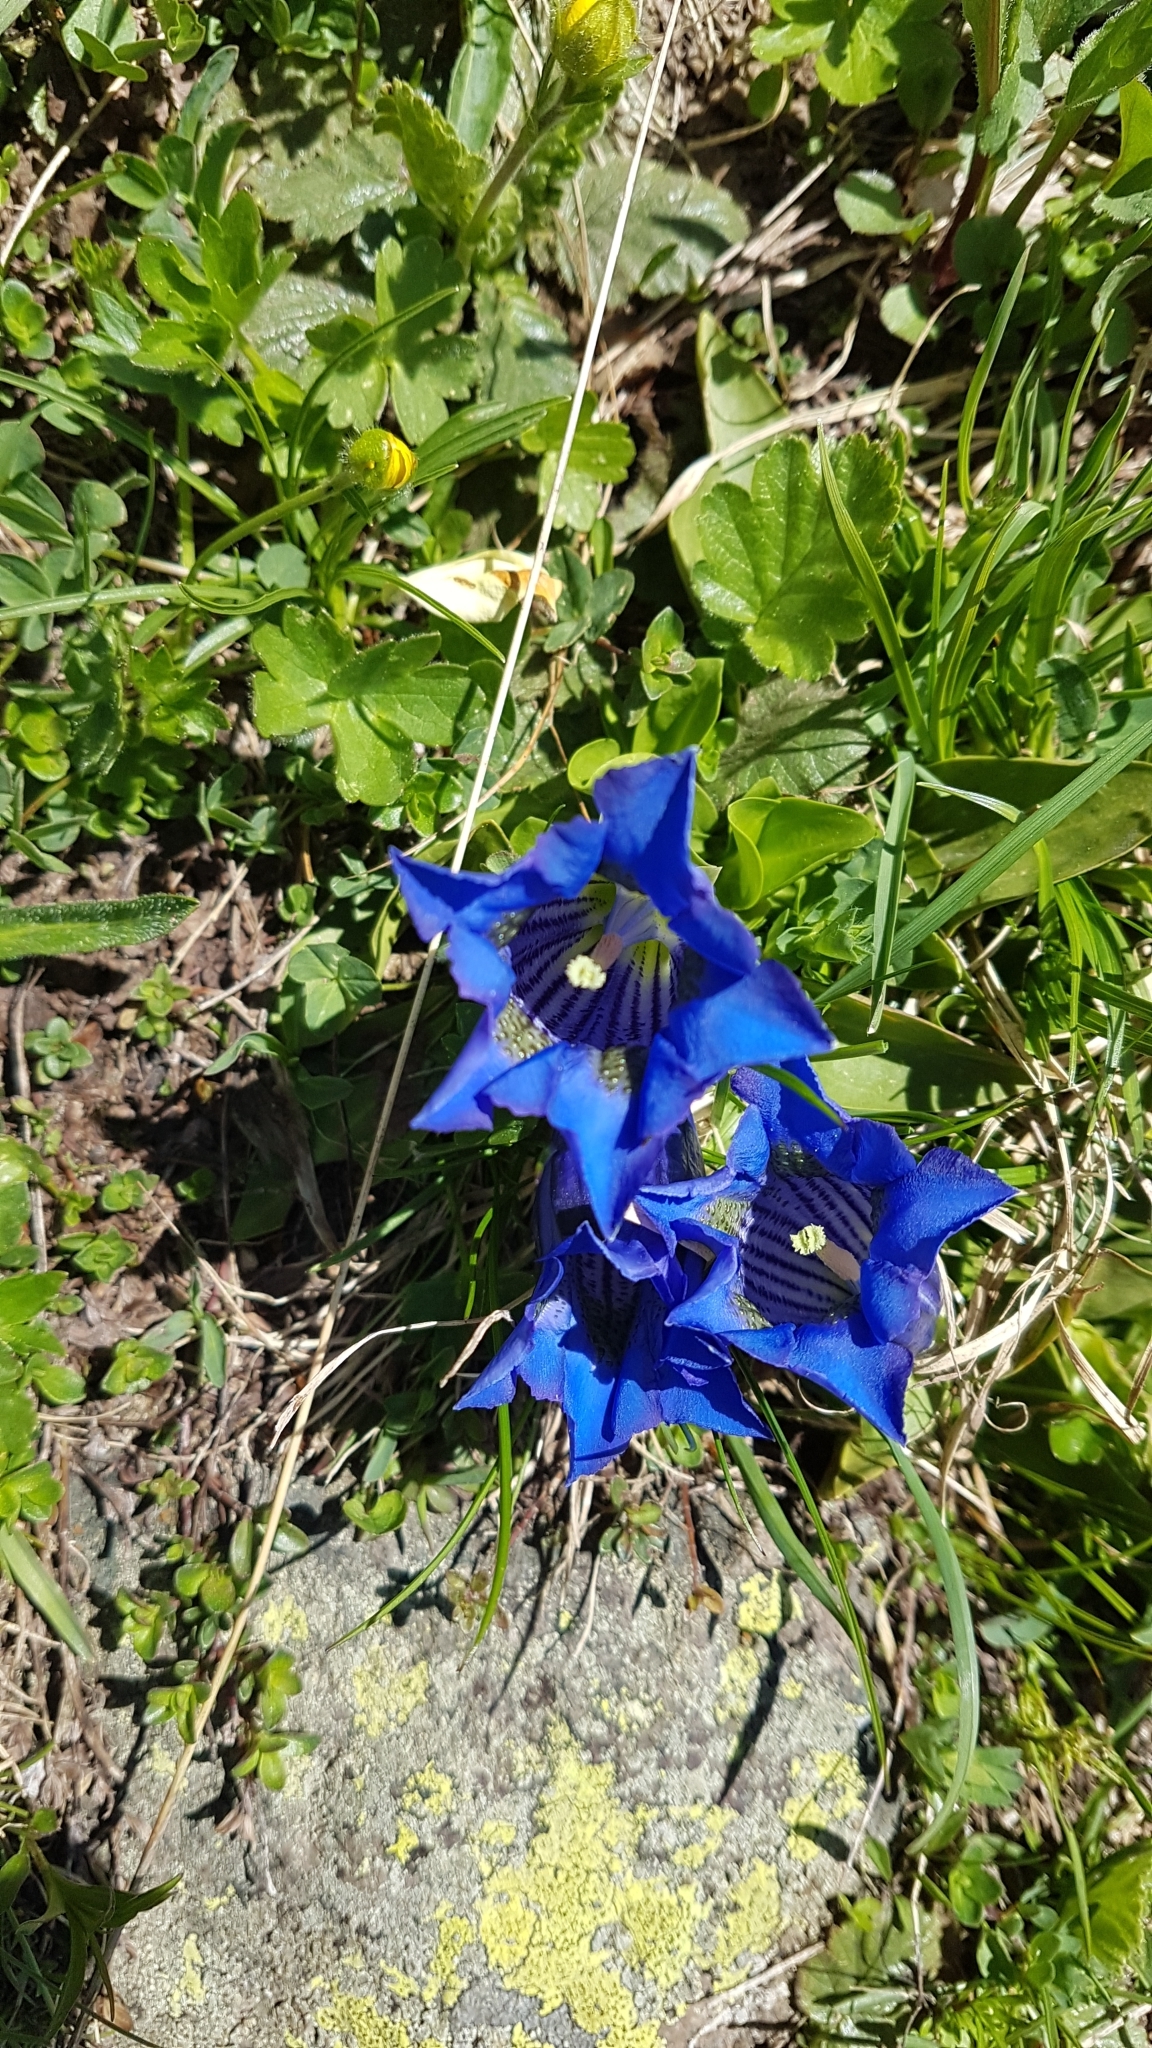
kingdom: Plantae
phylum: Tracheophyta
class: Magnoliopsida
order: Gentianales
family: Gentianaceae
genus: Gentiana
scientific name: Gentiana acaulis
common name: Trumpet gentian
